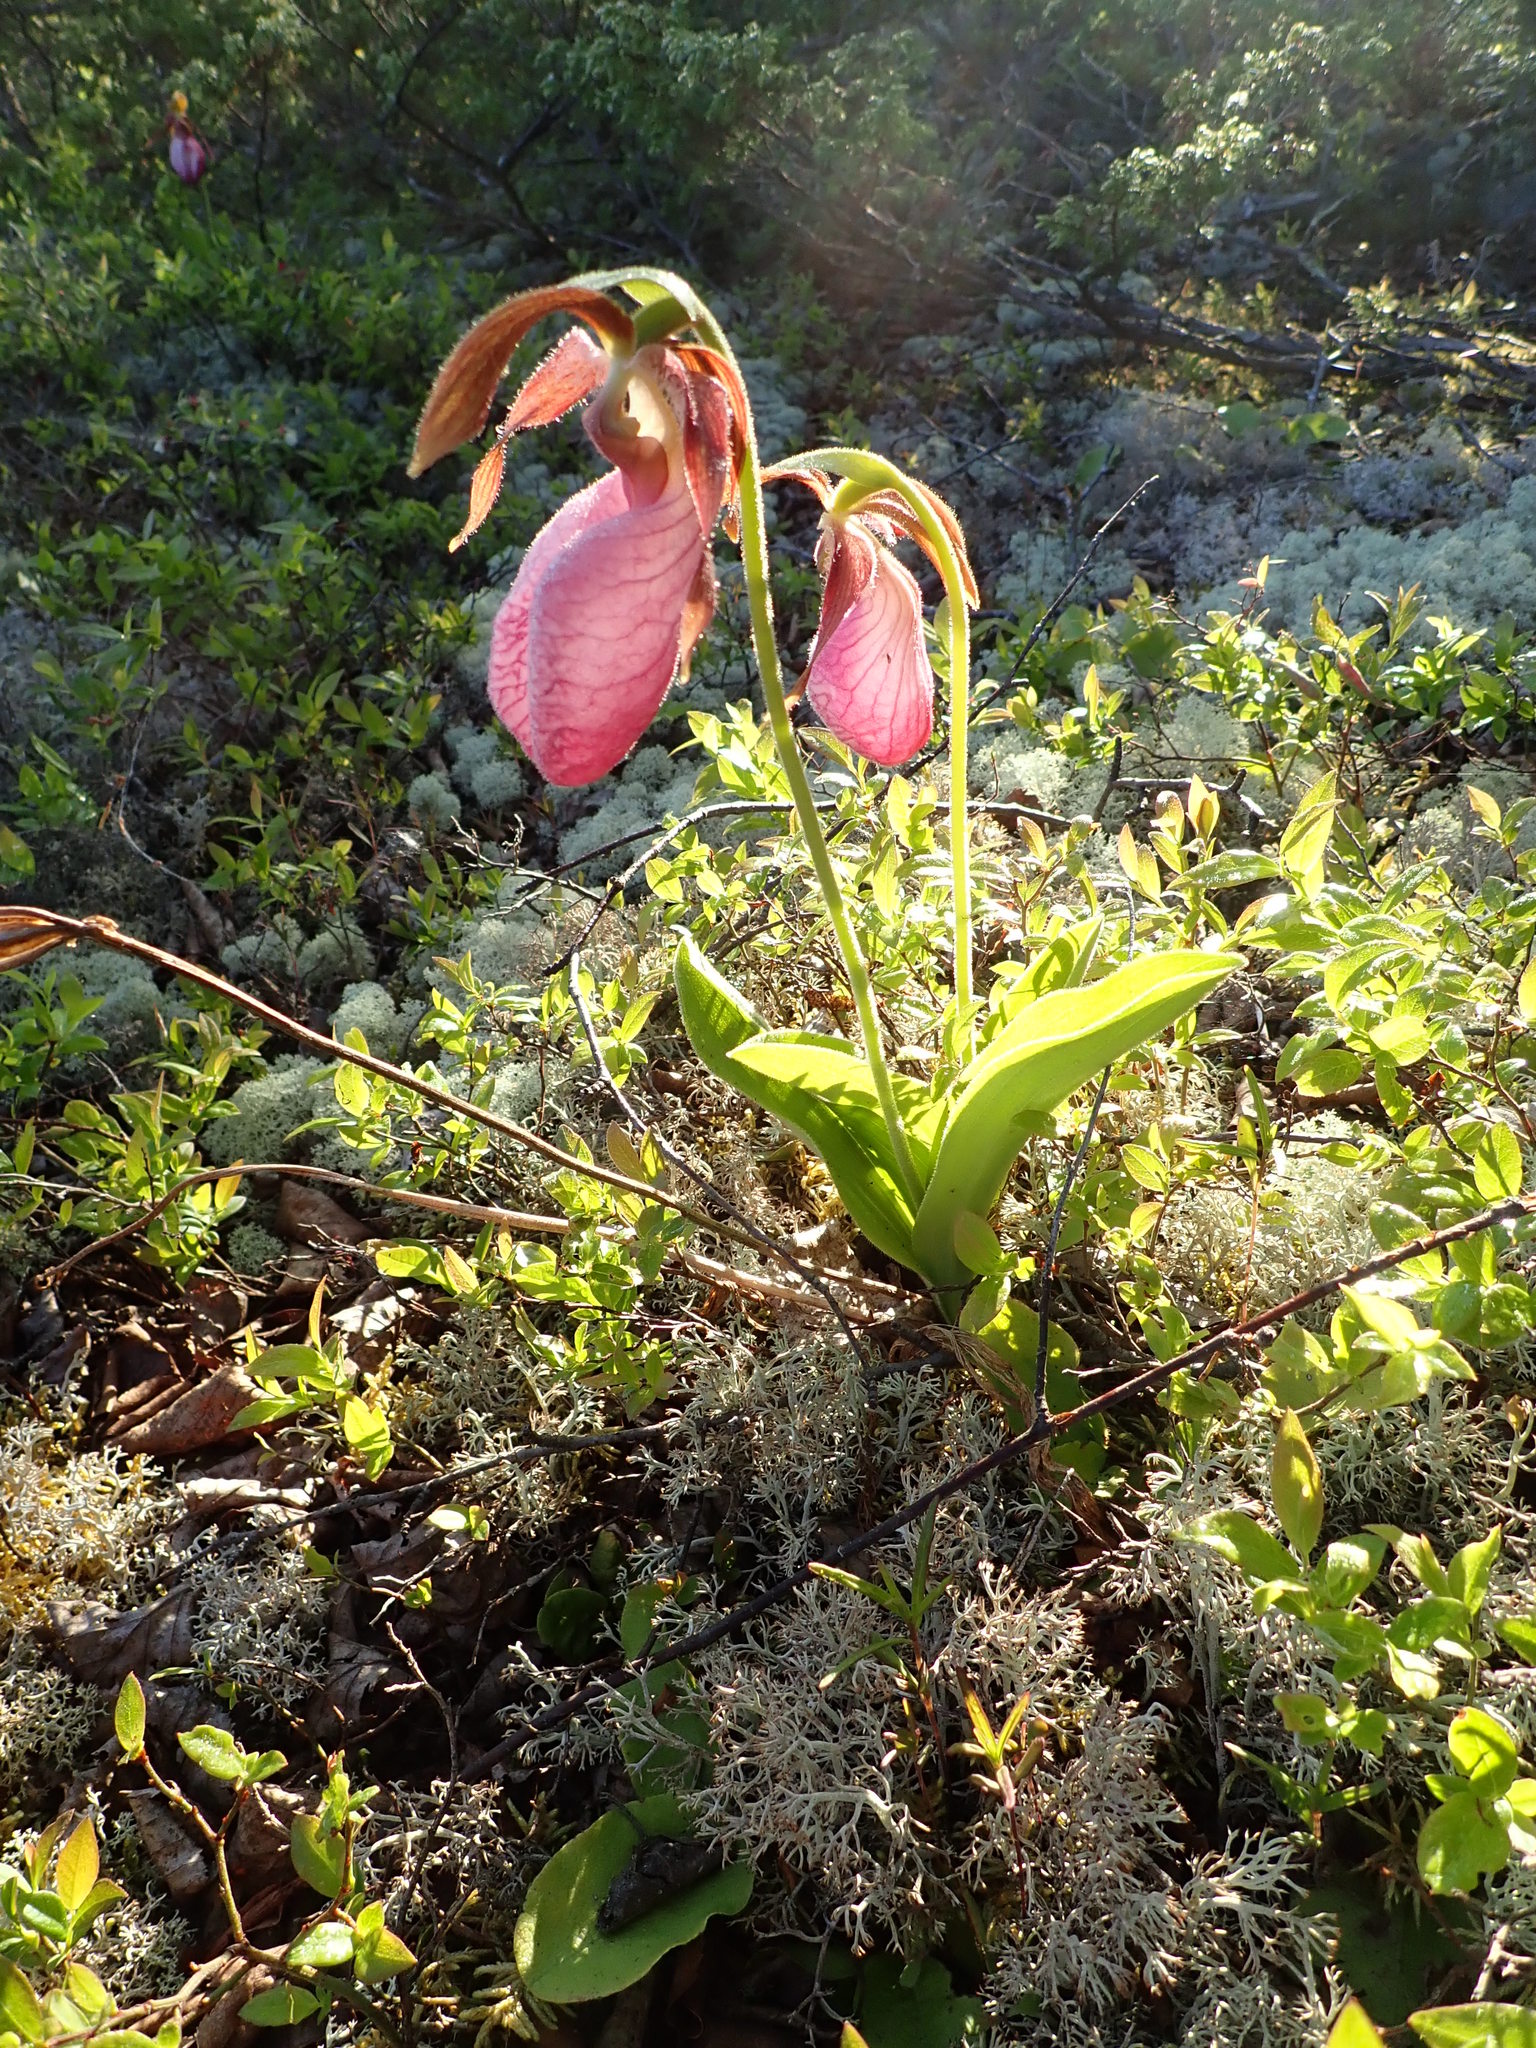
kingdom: Plantae
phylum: Tracheophyta
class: Liliopsida
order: Asparagales
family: Orchidaceae
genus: Cypripedium
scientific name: Cypripedium acaule
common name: Pink lady's-slipper
